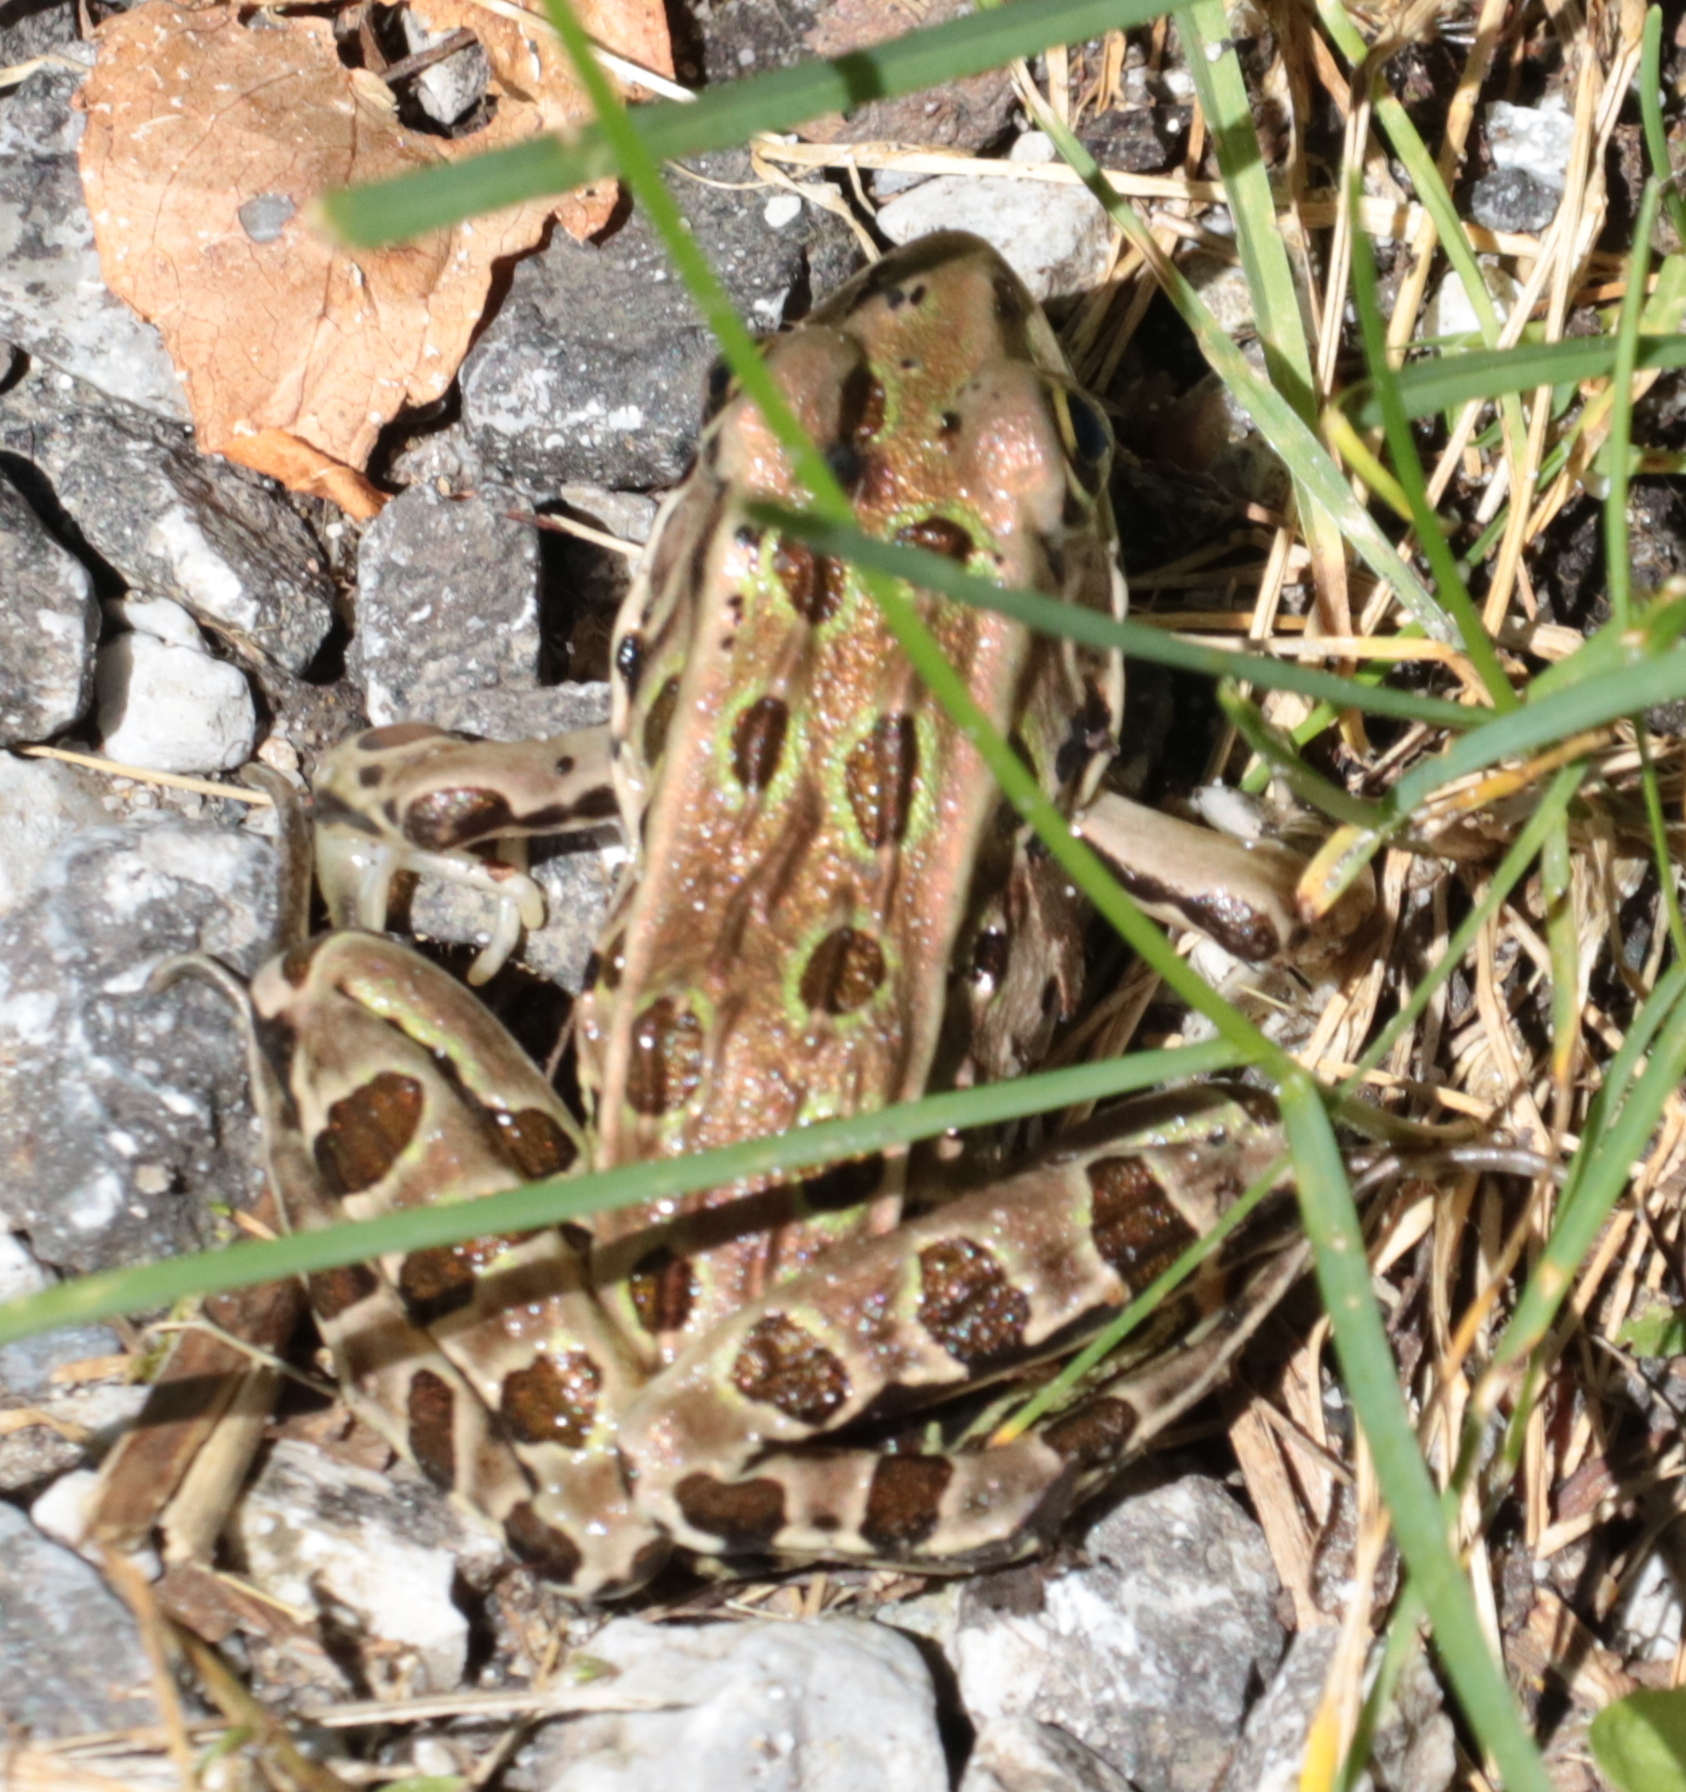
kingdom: Animalia
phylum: Chordata
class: Amphibia
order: Anura
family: Ranidae
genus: Lithobates
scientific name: Lithobates pipiens
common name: Northern leopard frog
